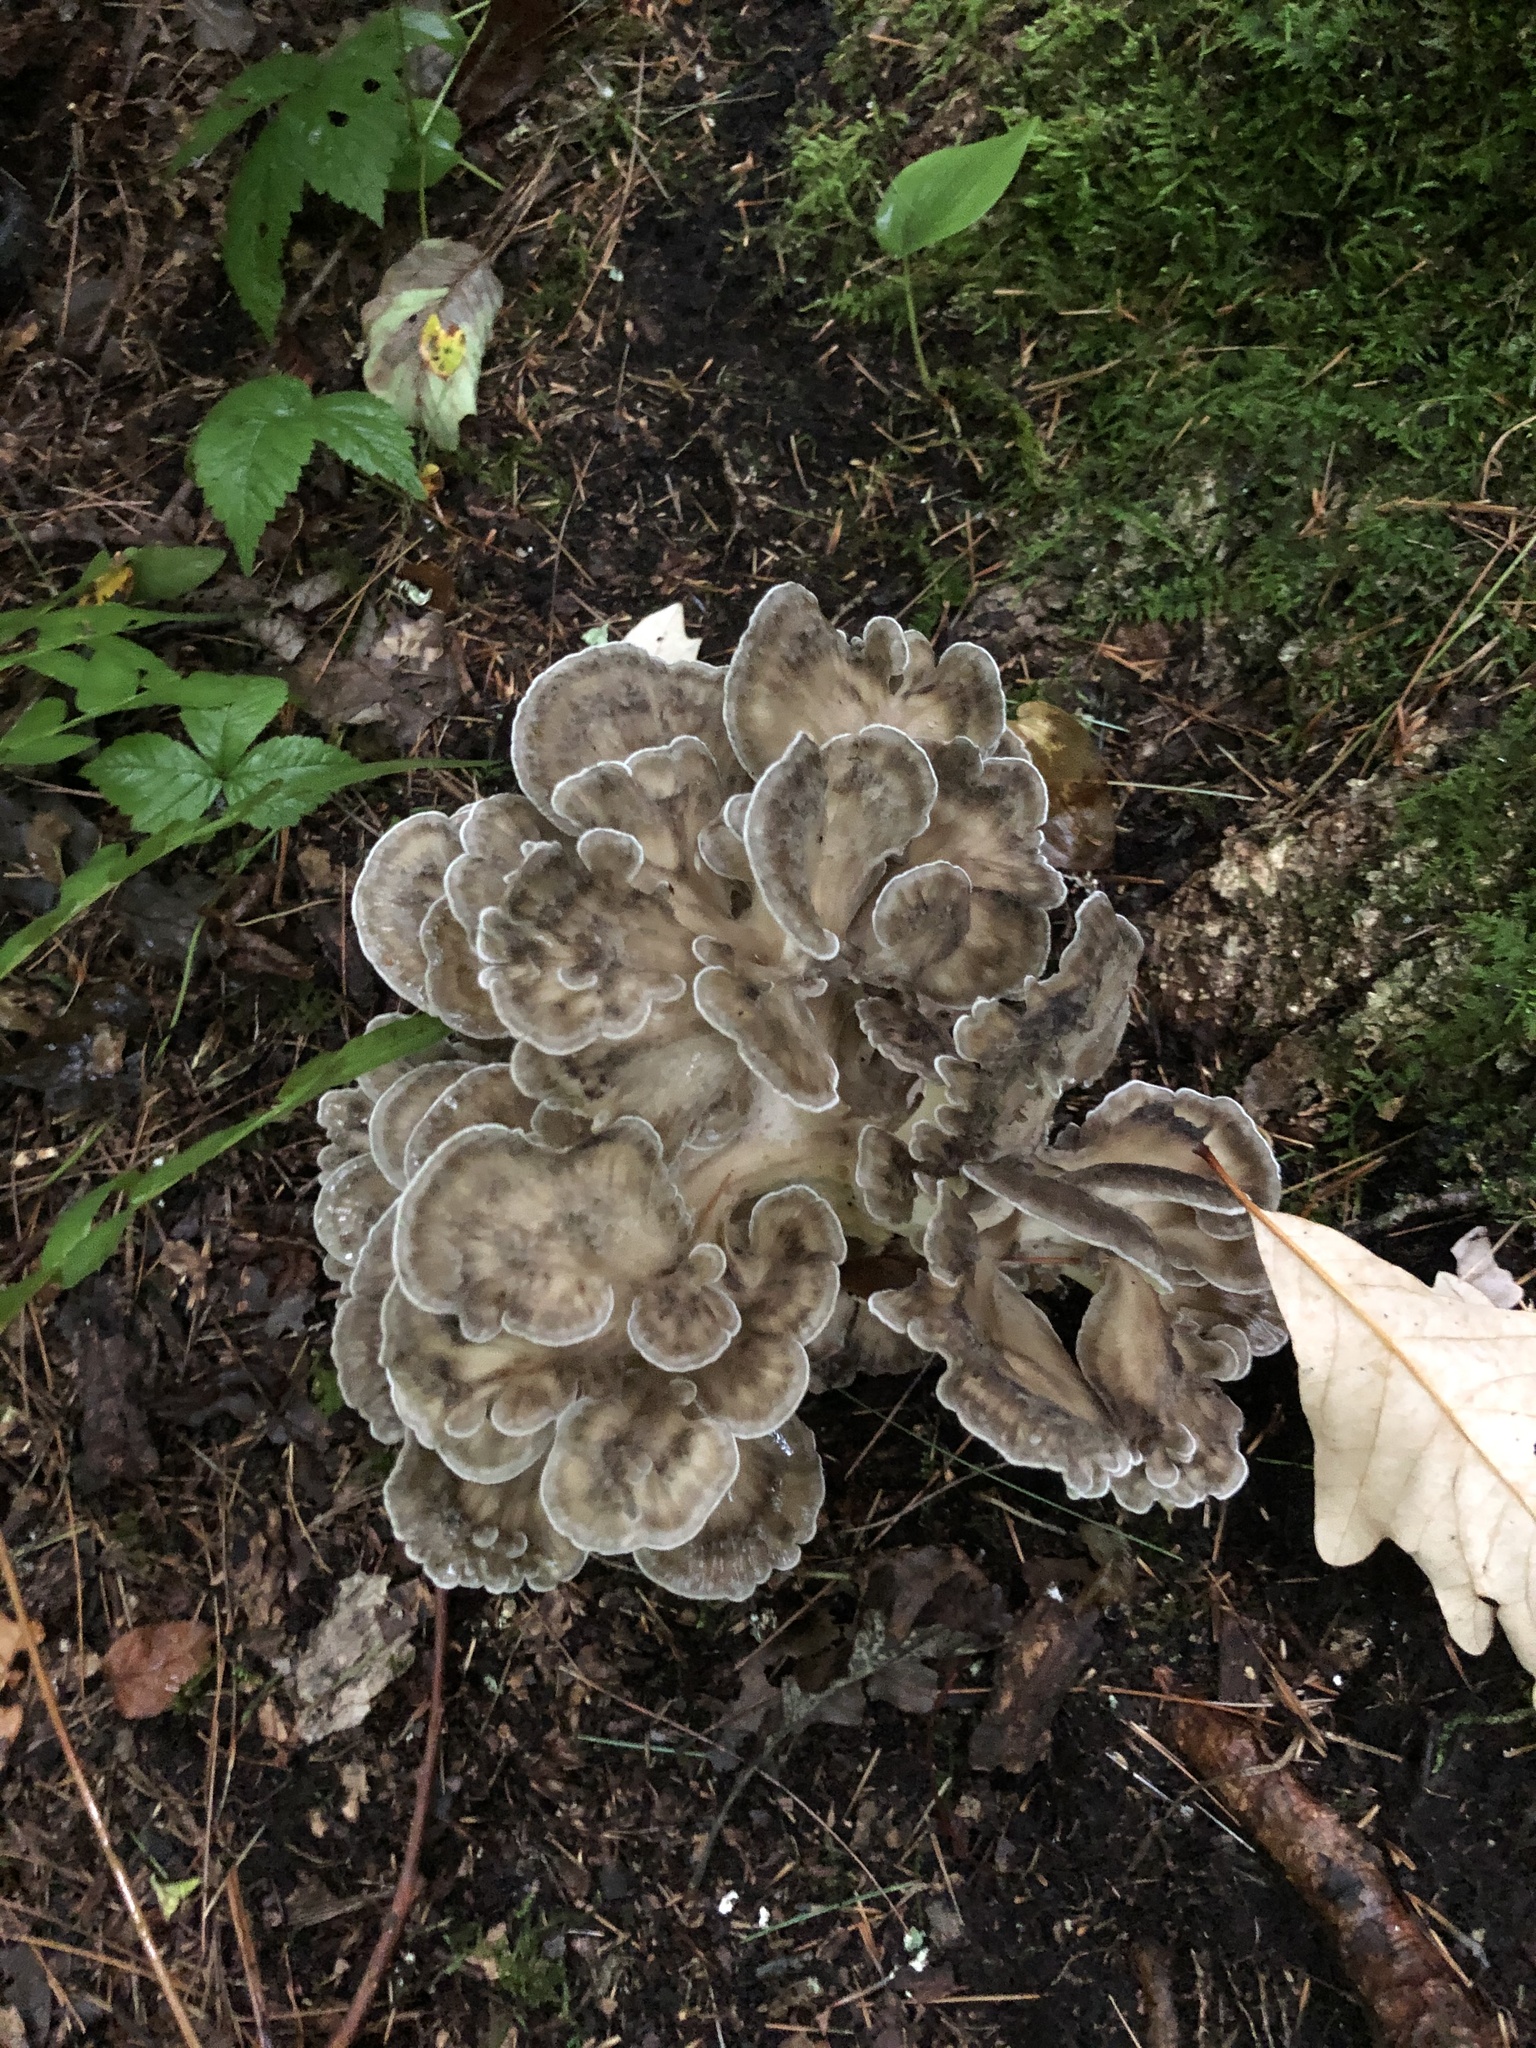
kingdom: Fungi
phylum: Basidiomycota
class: Agaricomycetes
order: Polyporales
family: Grifolaceae
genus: Grifola
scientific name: Grifola frondosa
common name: Hen of the woods
